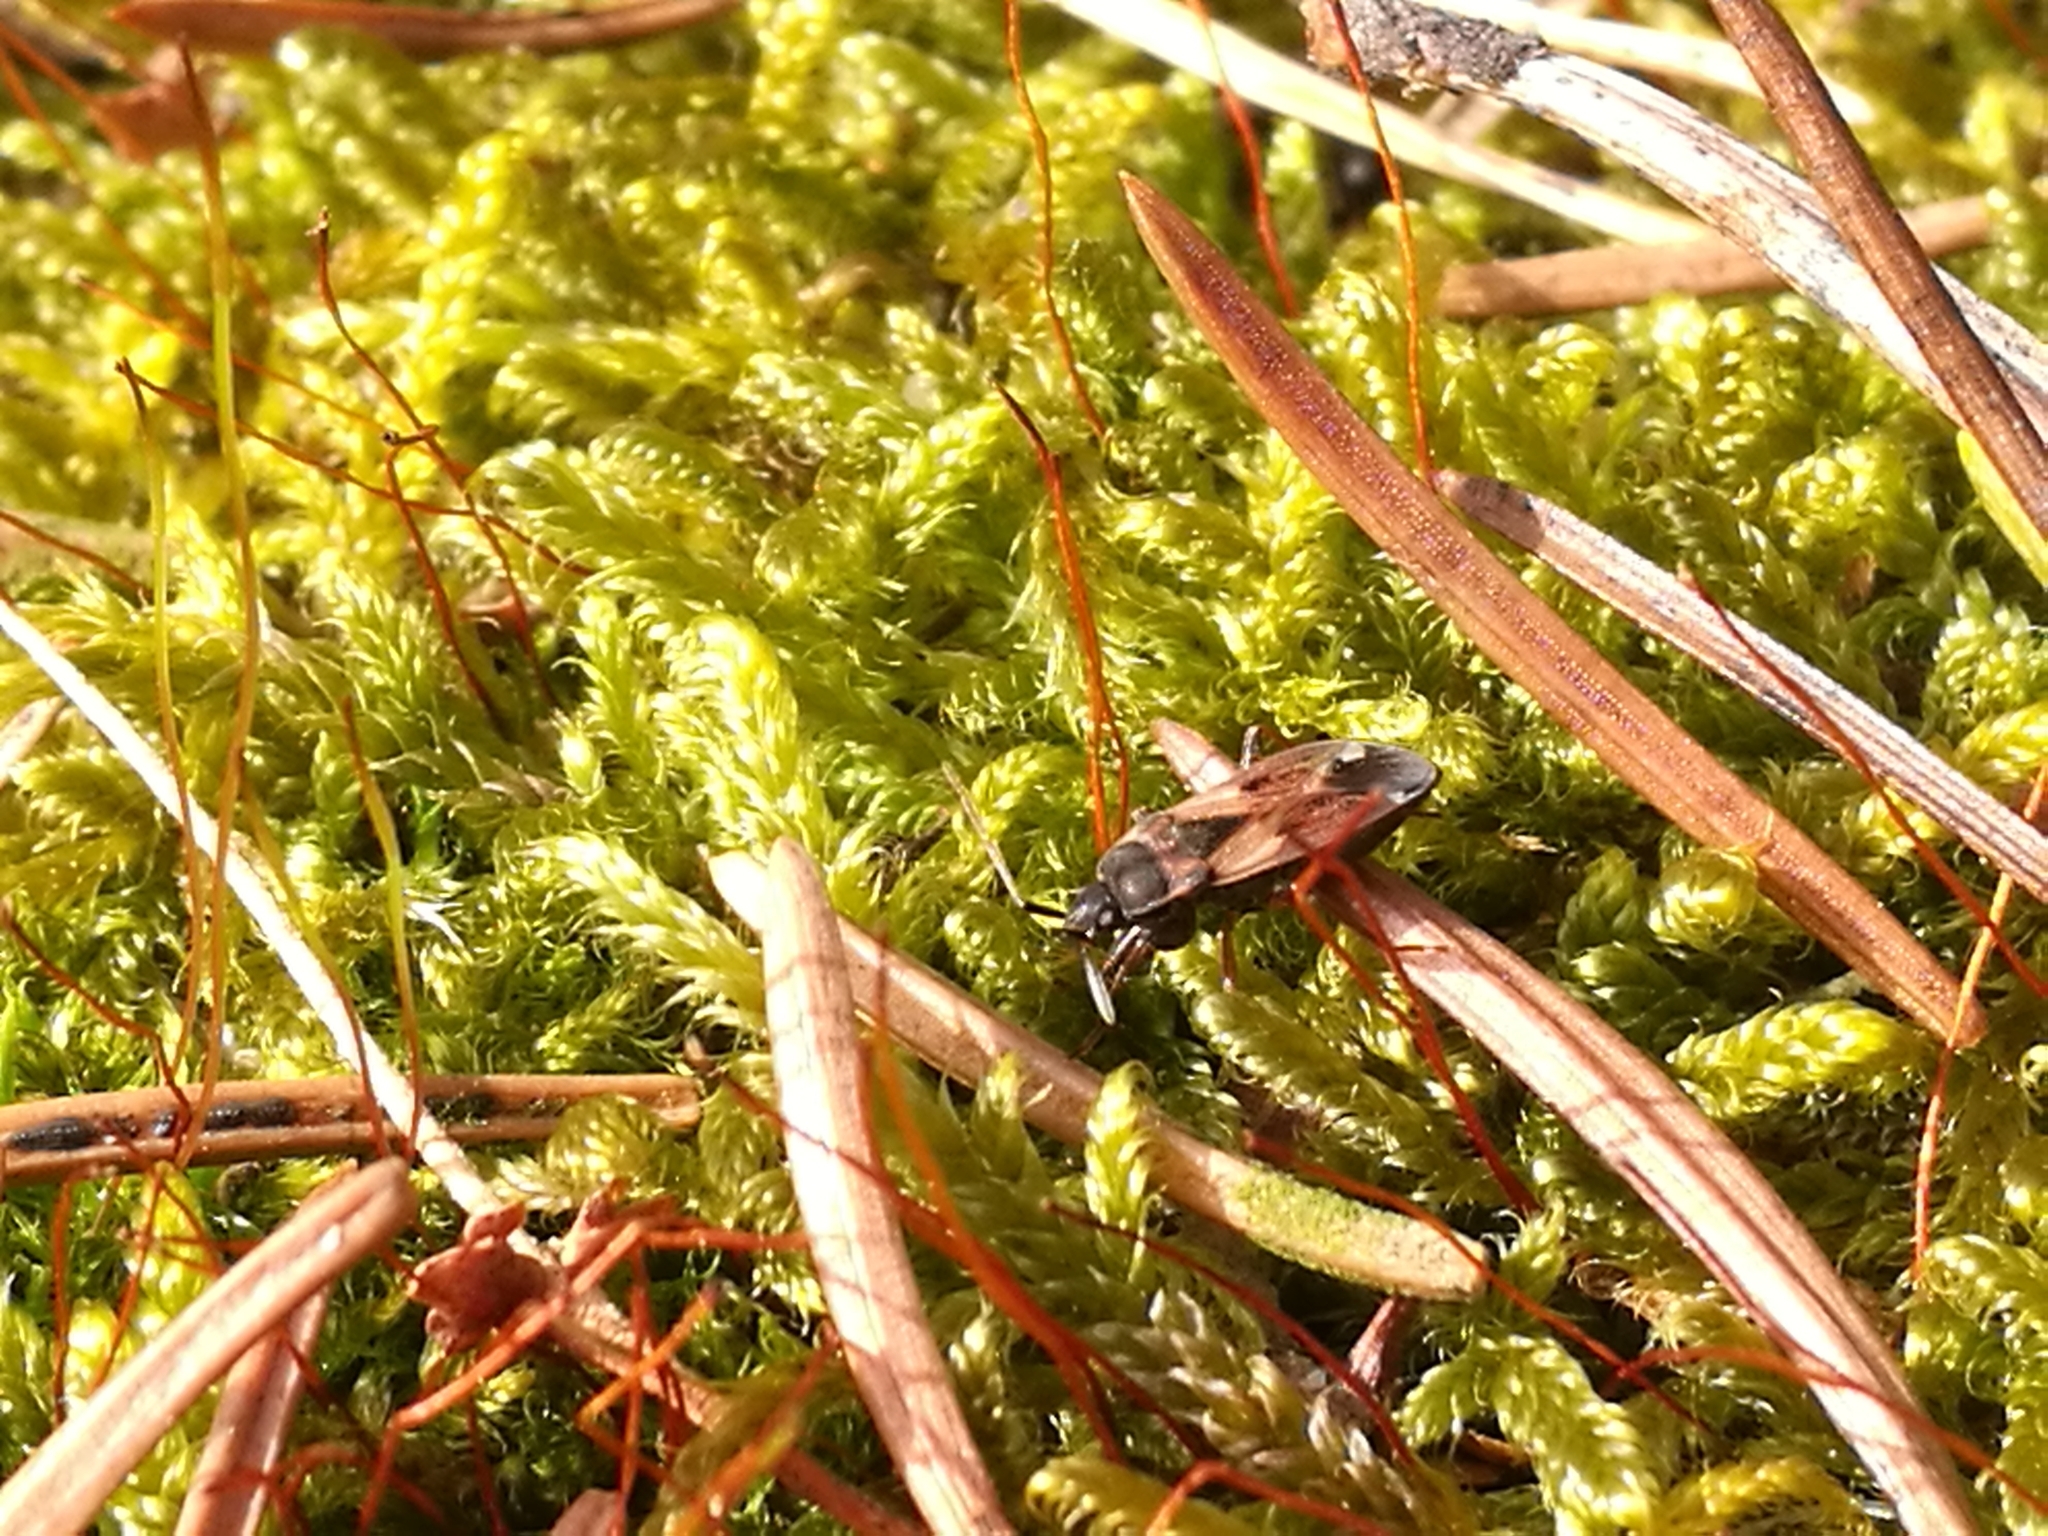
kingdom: Animalia
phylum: Arthropoda
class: Insecta
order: Hemiptera
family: Rhyparochromidae
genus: Eremocoris
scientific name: Eremocoris abietis
